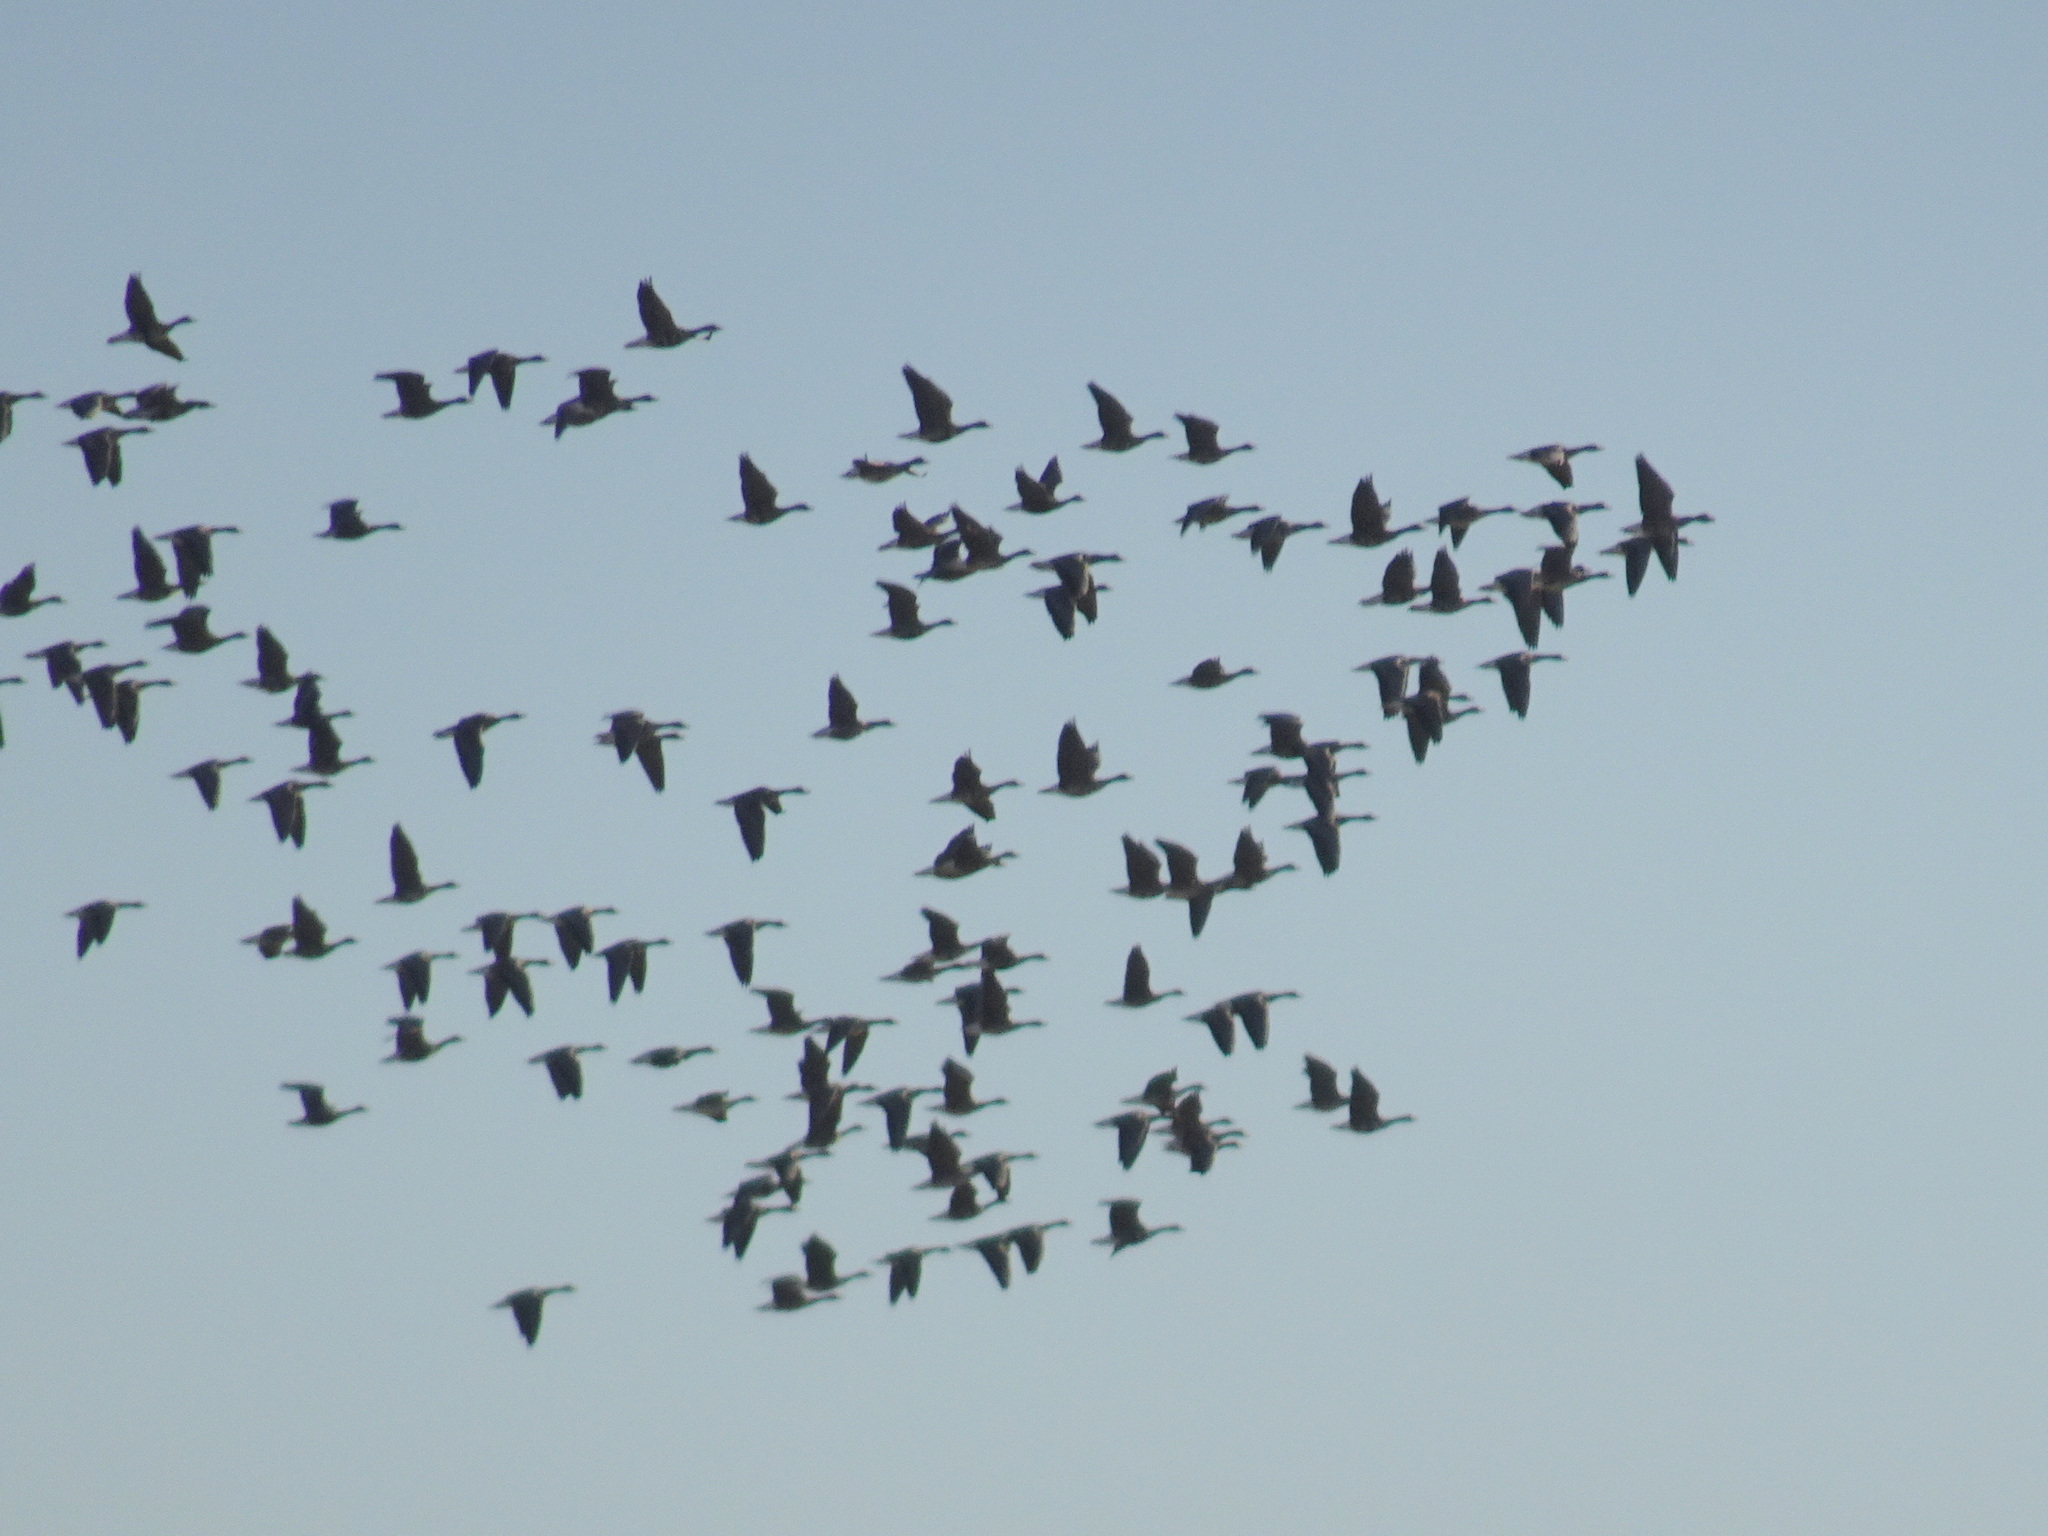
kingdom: Animalia
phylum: Chordata
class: Aves
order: Anseriformes
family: Anatidae
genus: Anser
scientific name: Anser albifrons
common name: Greater white-fronted goose
